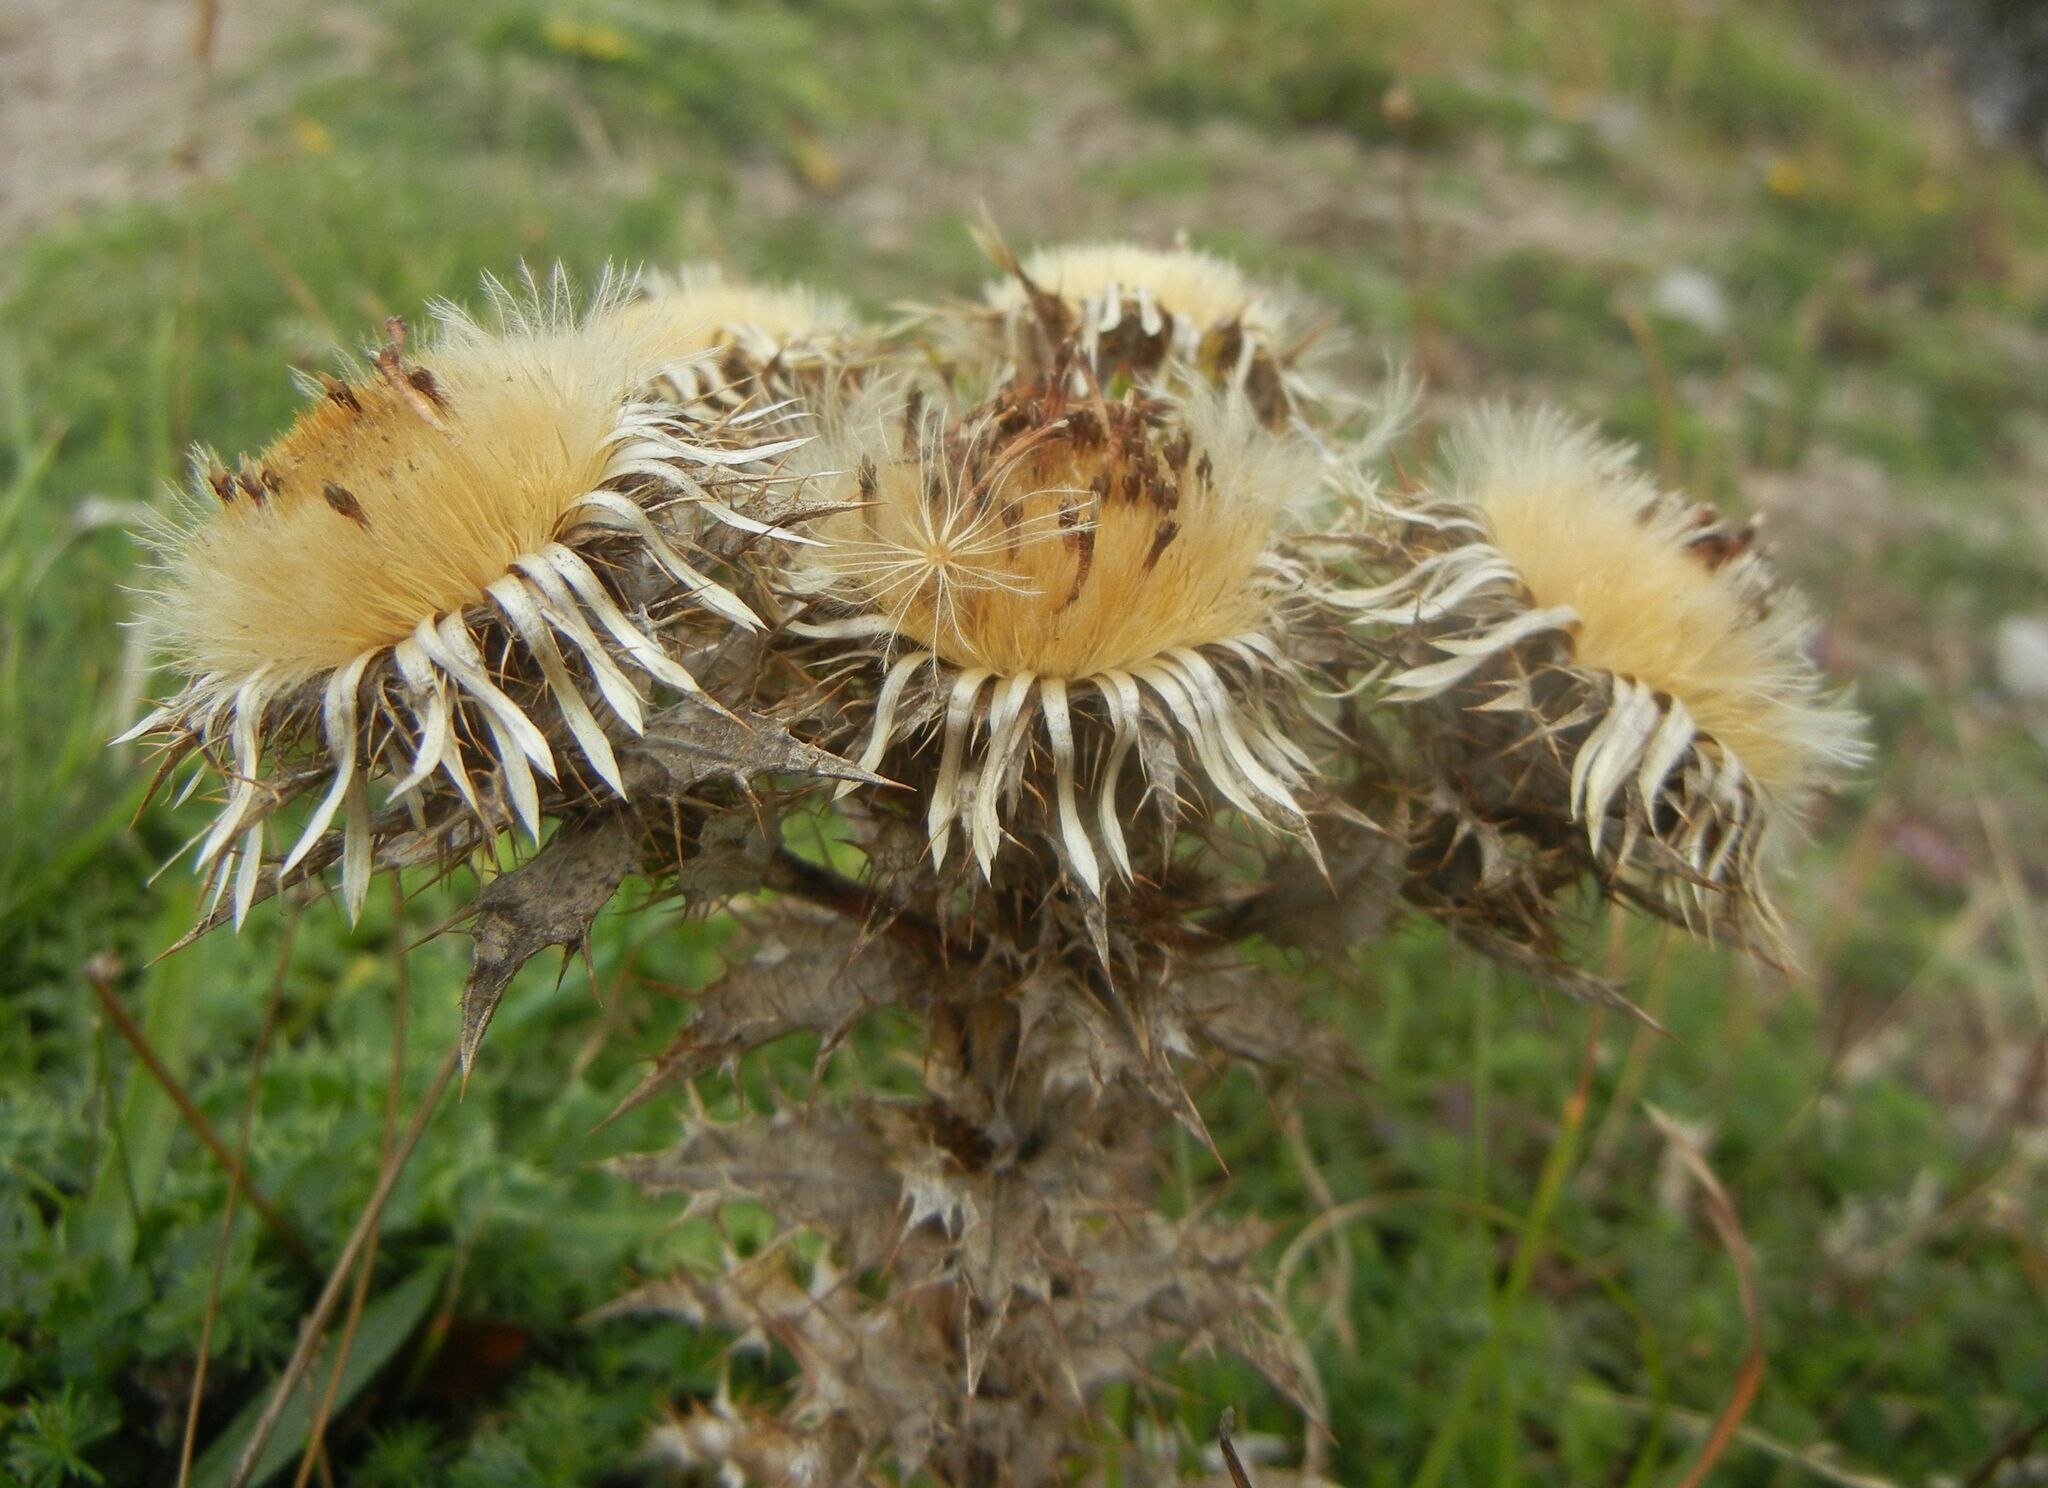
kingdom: Plantae
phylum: Tracheophyta
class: Magnoliopsida
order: Asterales
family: Asteraceae
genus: Carlina
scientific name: Carlina vulgaris
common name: Carline thistle
